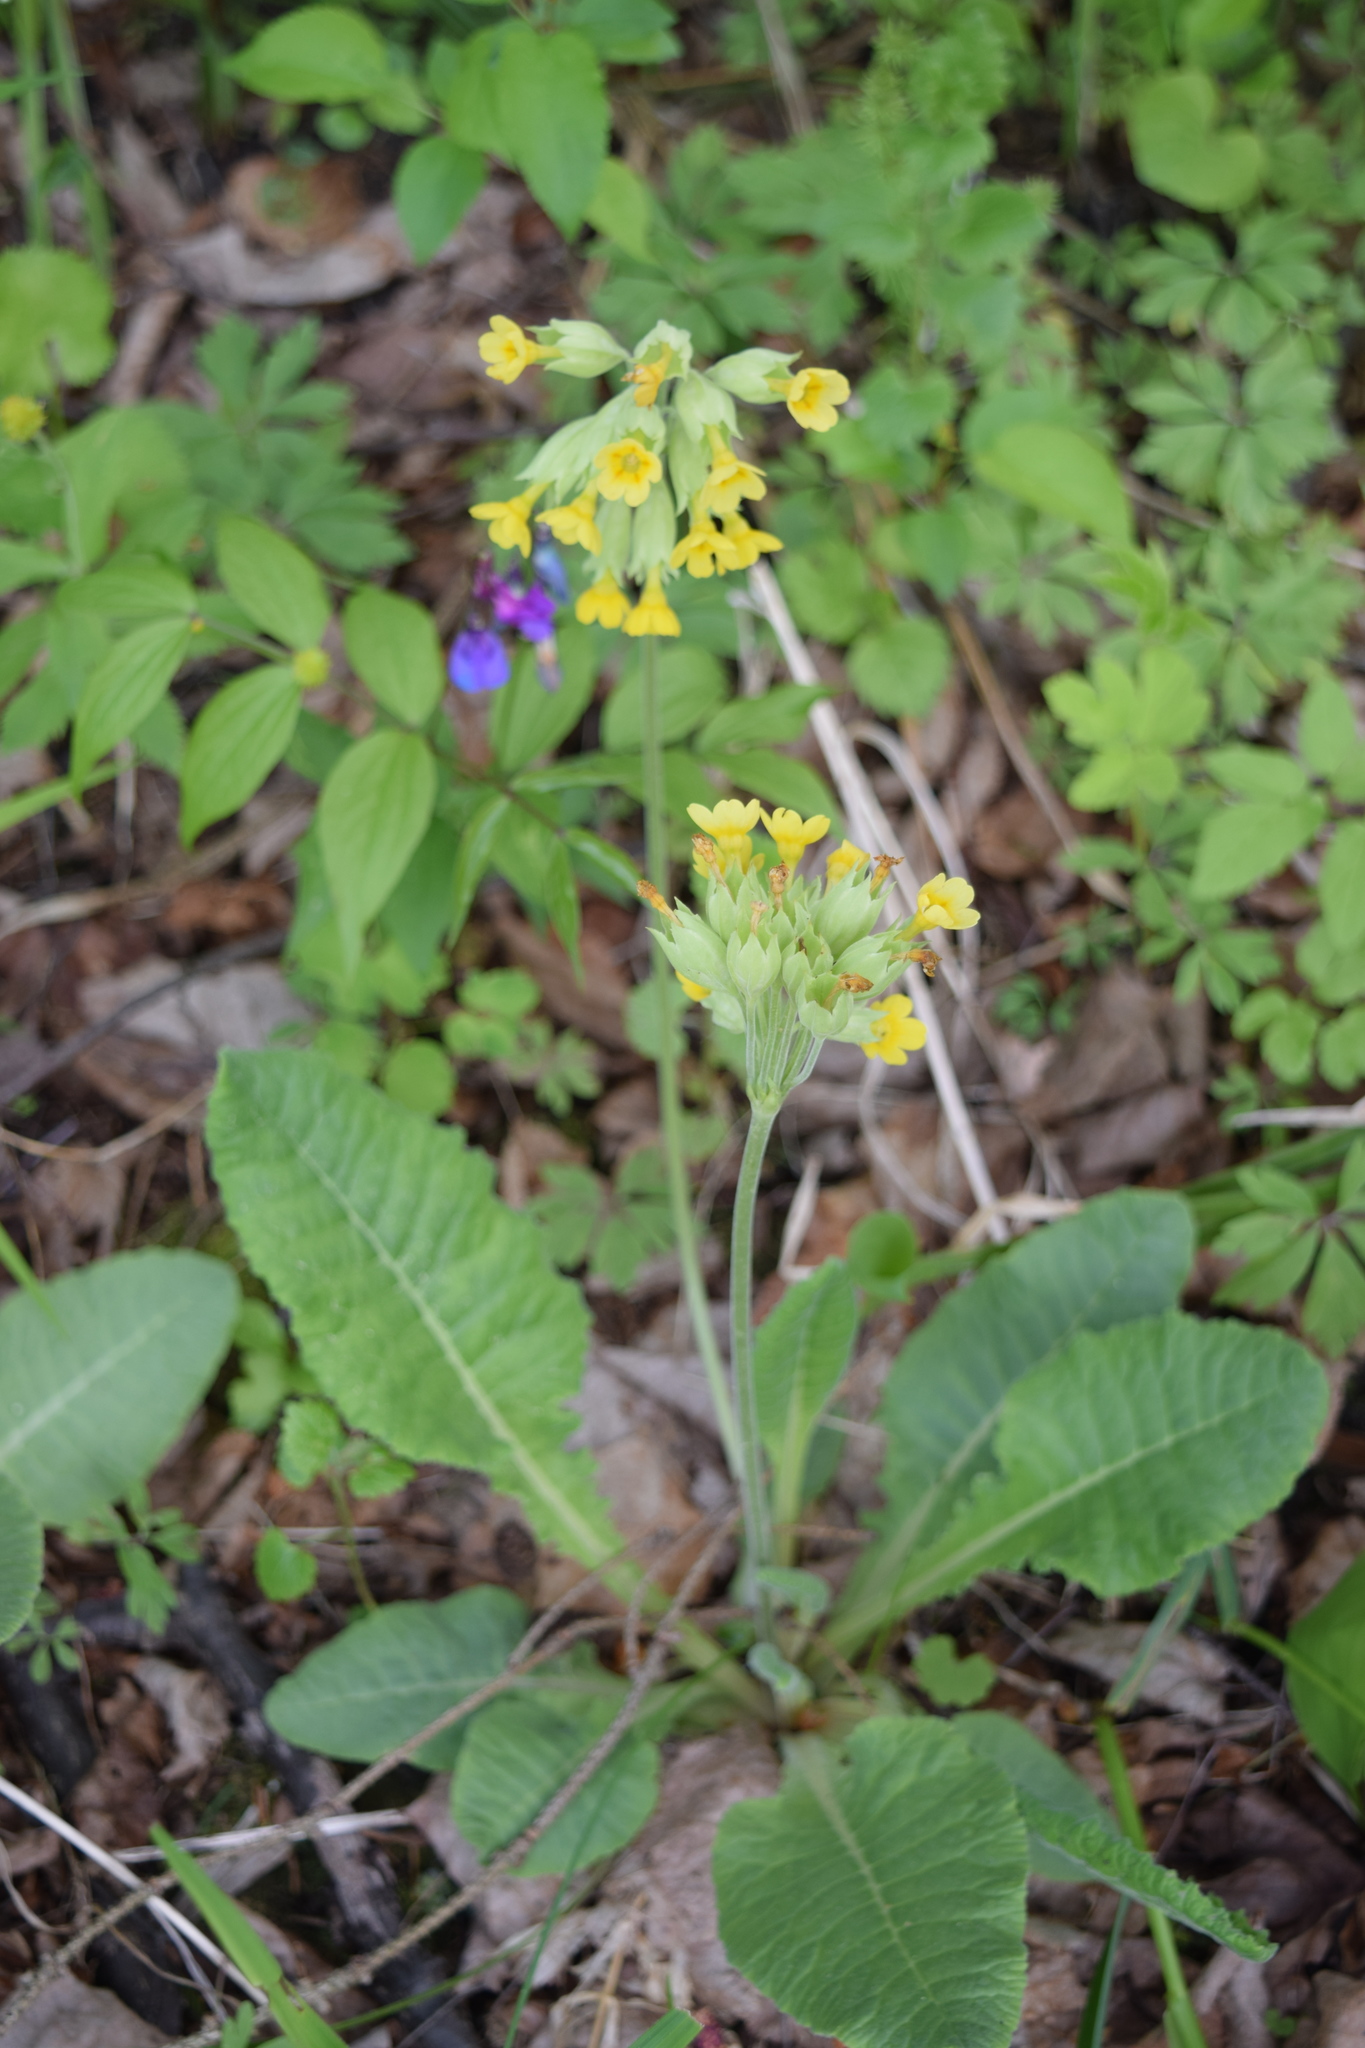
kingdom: Plantae
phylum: Tracheophyta
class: Magnoliopsida
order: Ericales
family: Primulaceae
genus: Primula
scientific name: Primula veris
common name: Cowslip
